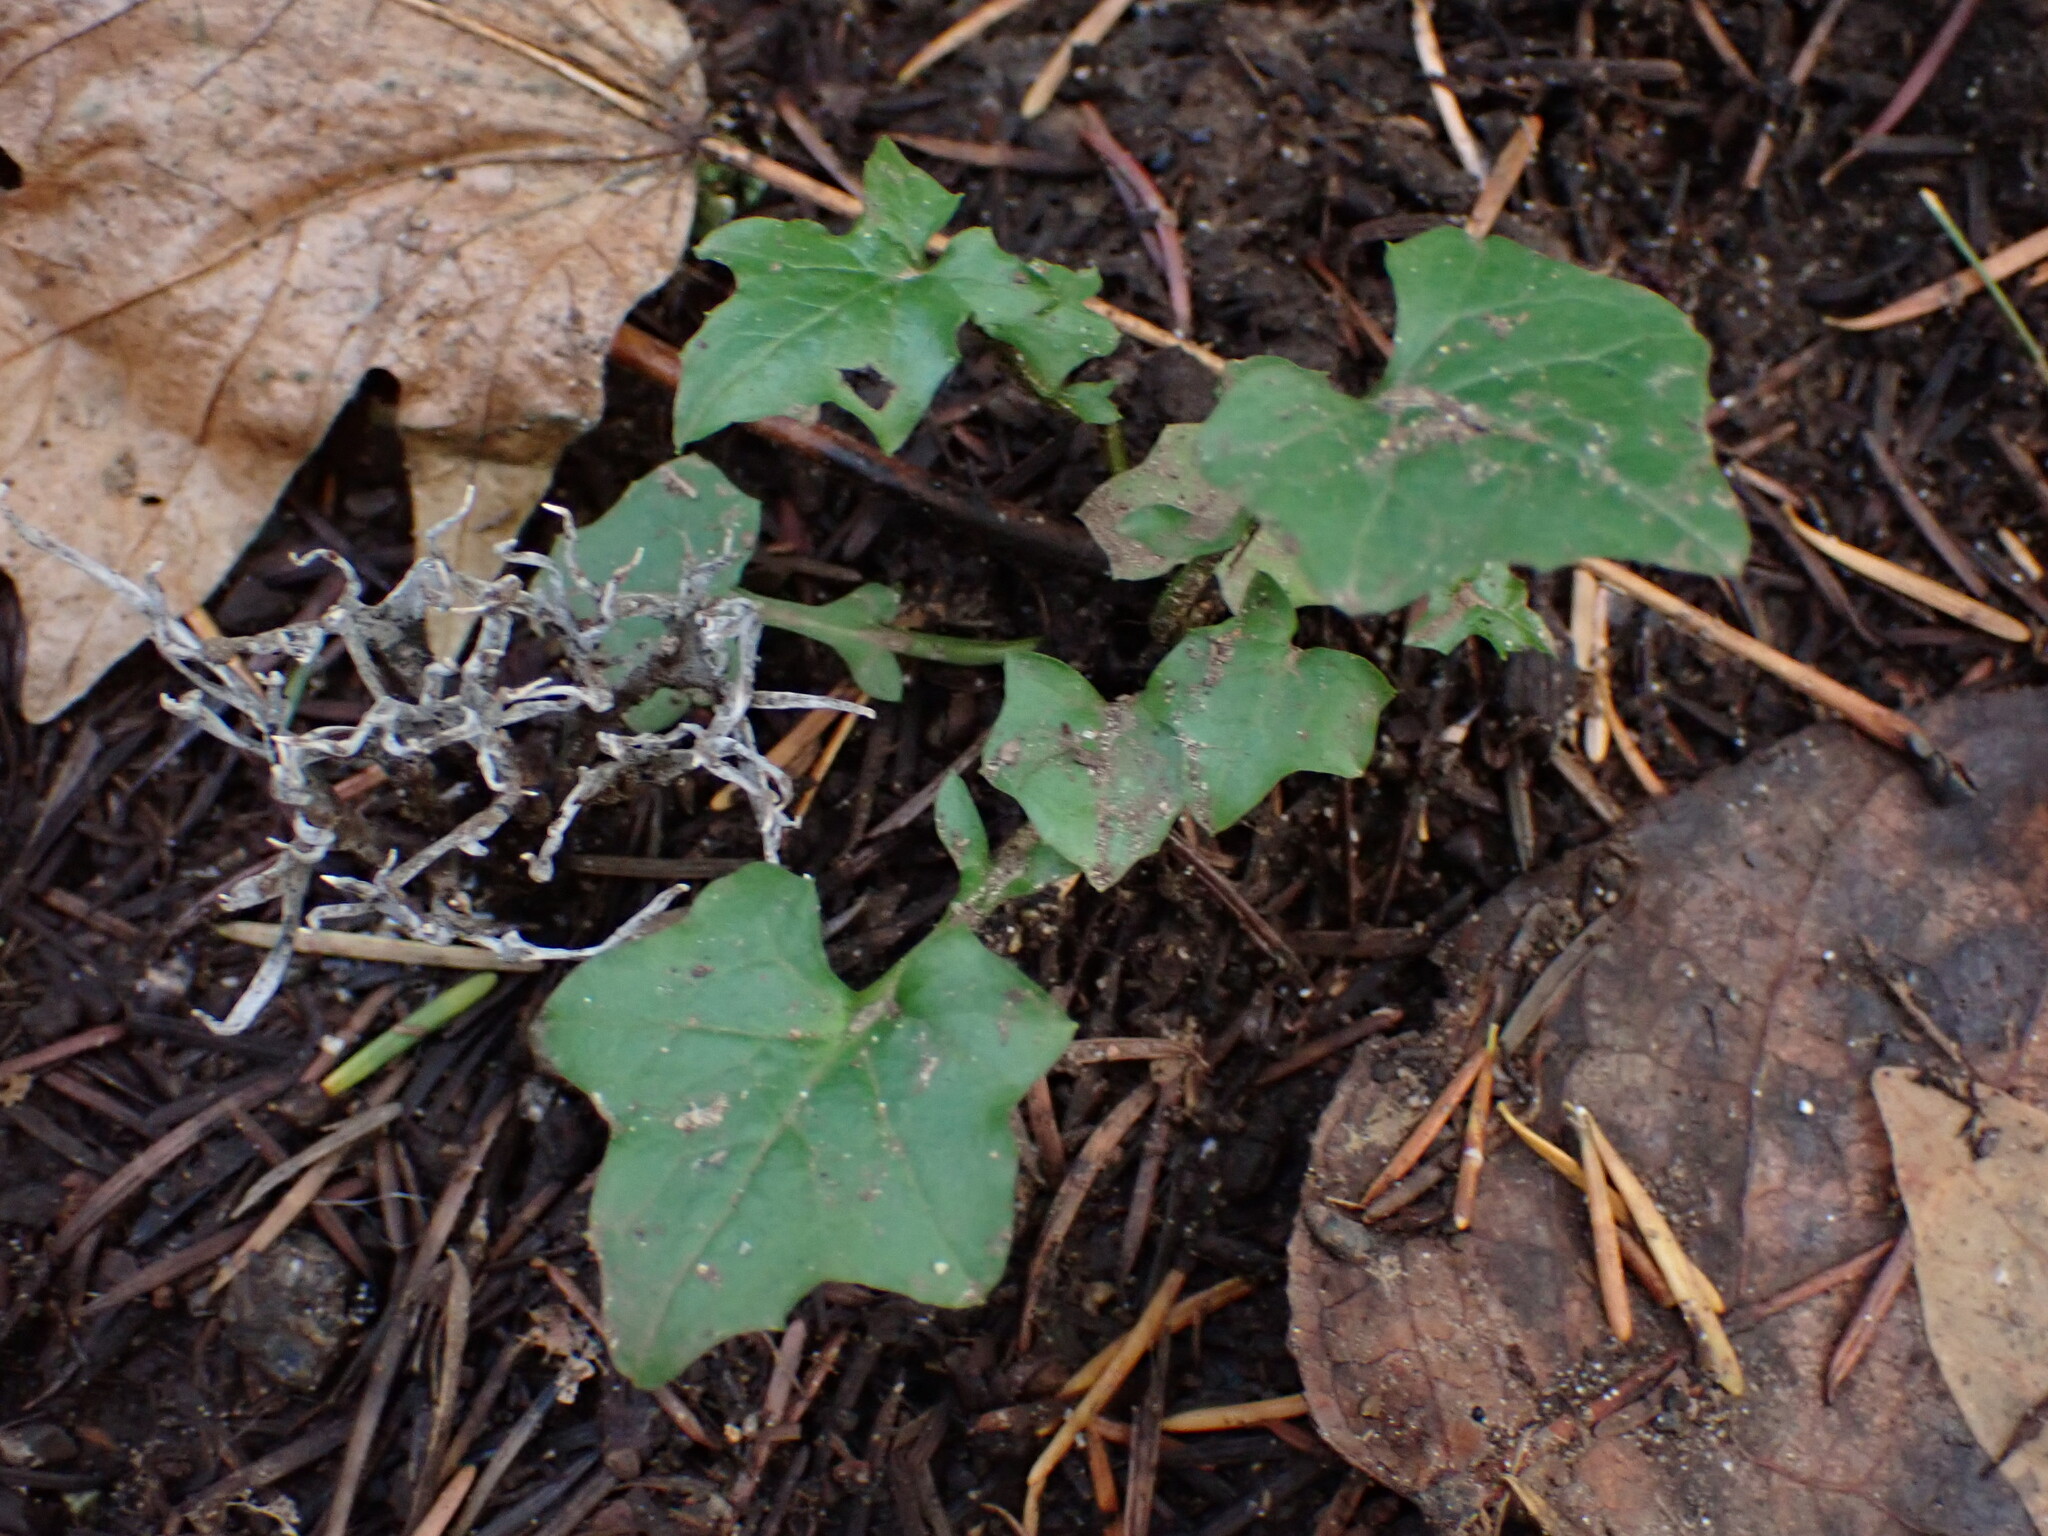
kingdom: Plantae
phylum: Tracheophyta
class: Magnoliopsida
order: Asterales
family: Asteraceae
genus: Mycelis
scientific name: Mycelis muralis
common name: Wall lettuce
